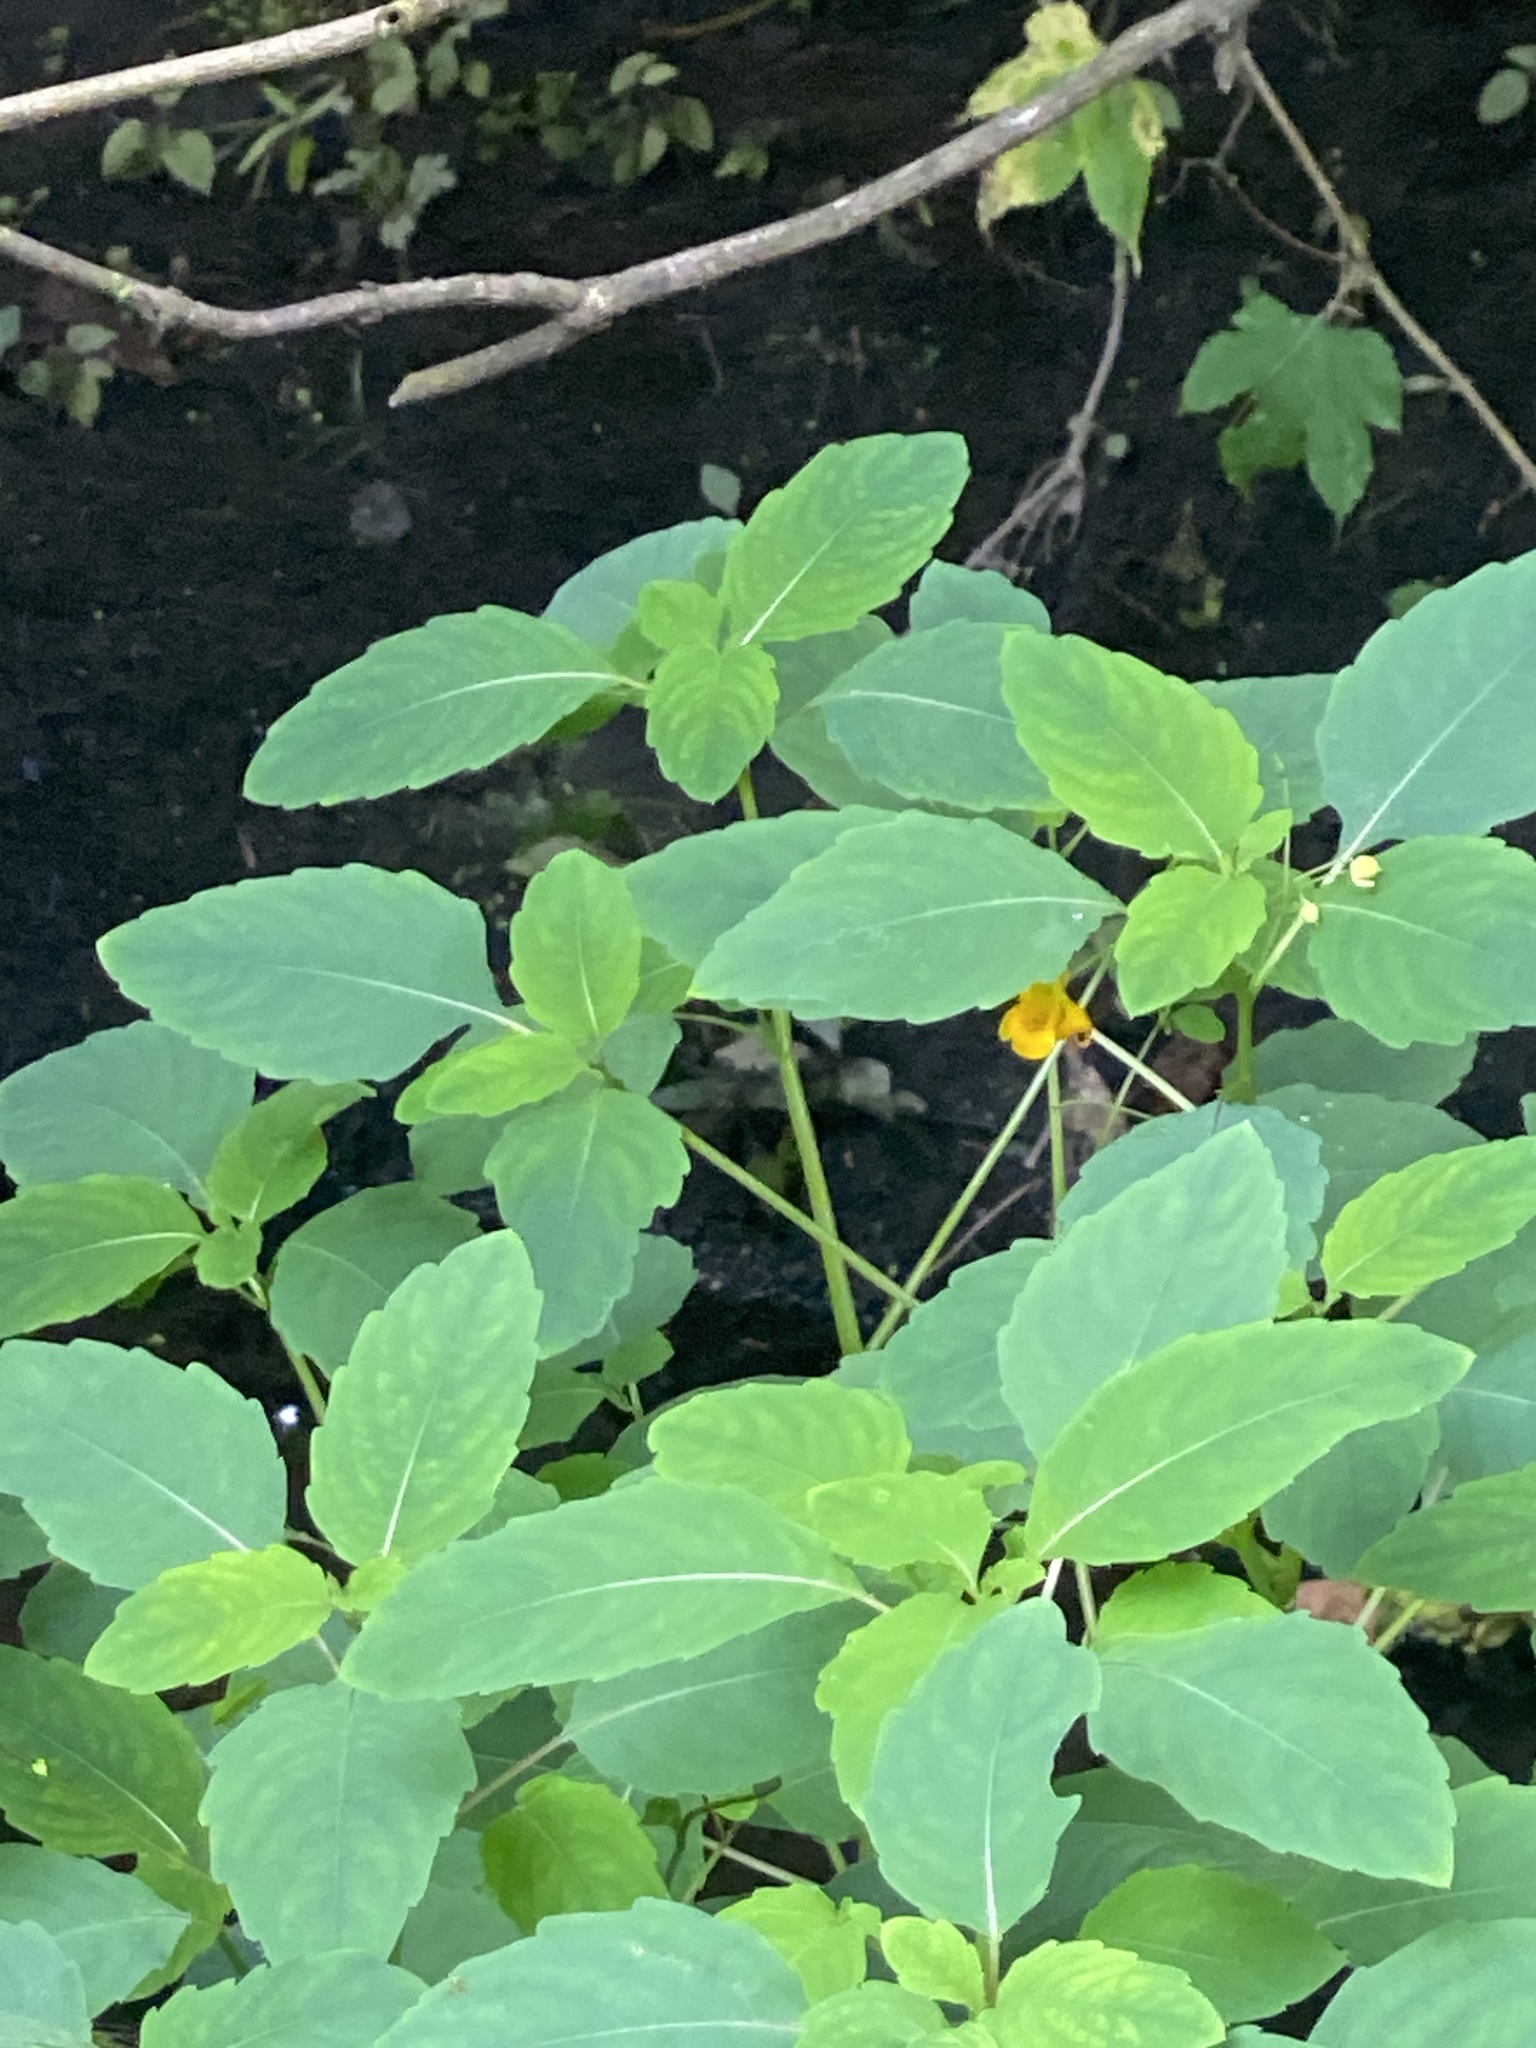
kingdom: Plantae
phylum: Tracheophyta
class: Magnoliopsida
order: Ericales
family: Balsaminaceae
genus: Impatiens
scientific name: Impatiens capensis
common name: Orange balsam
